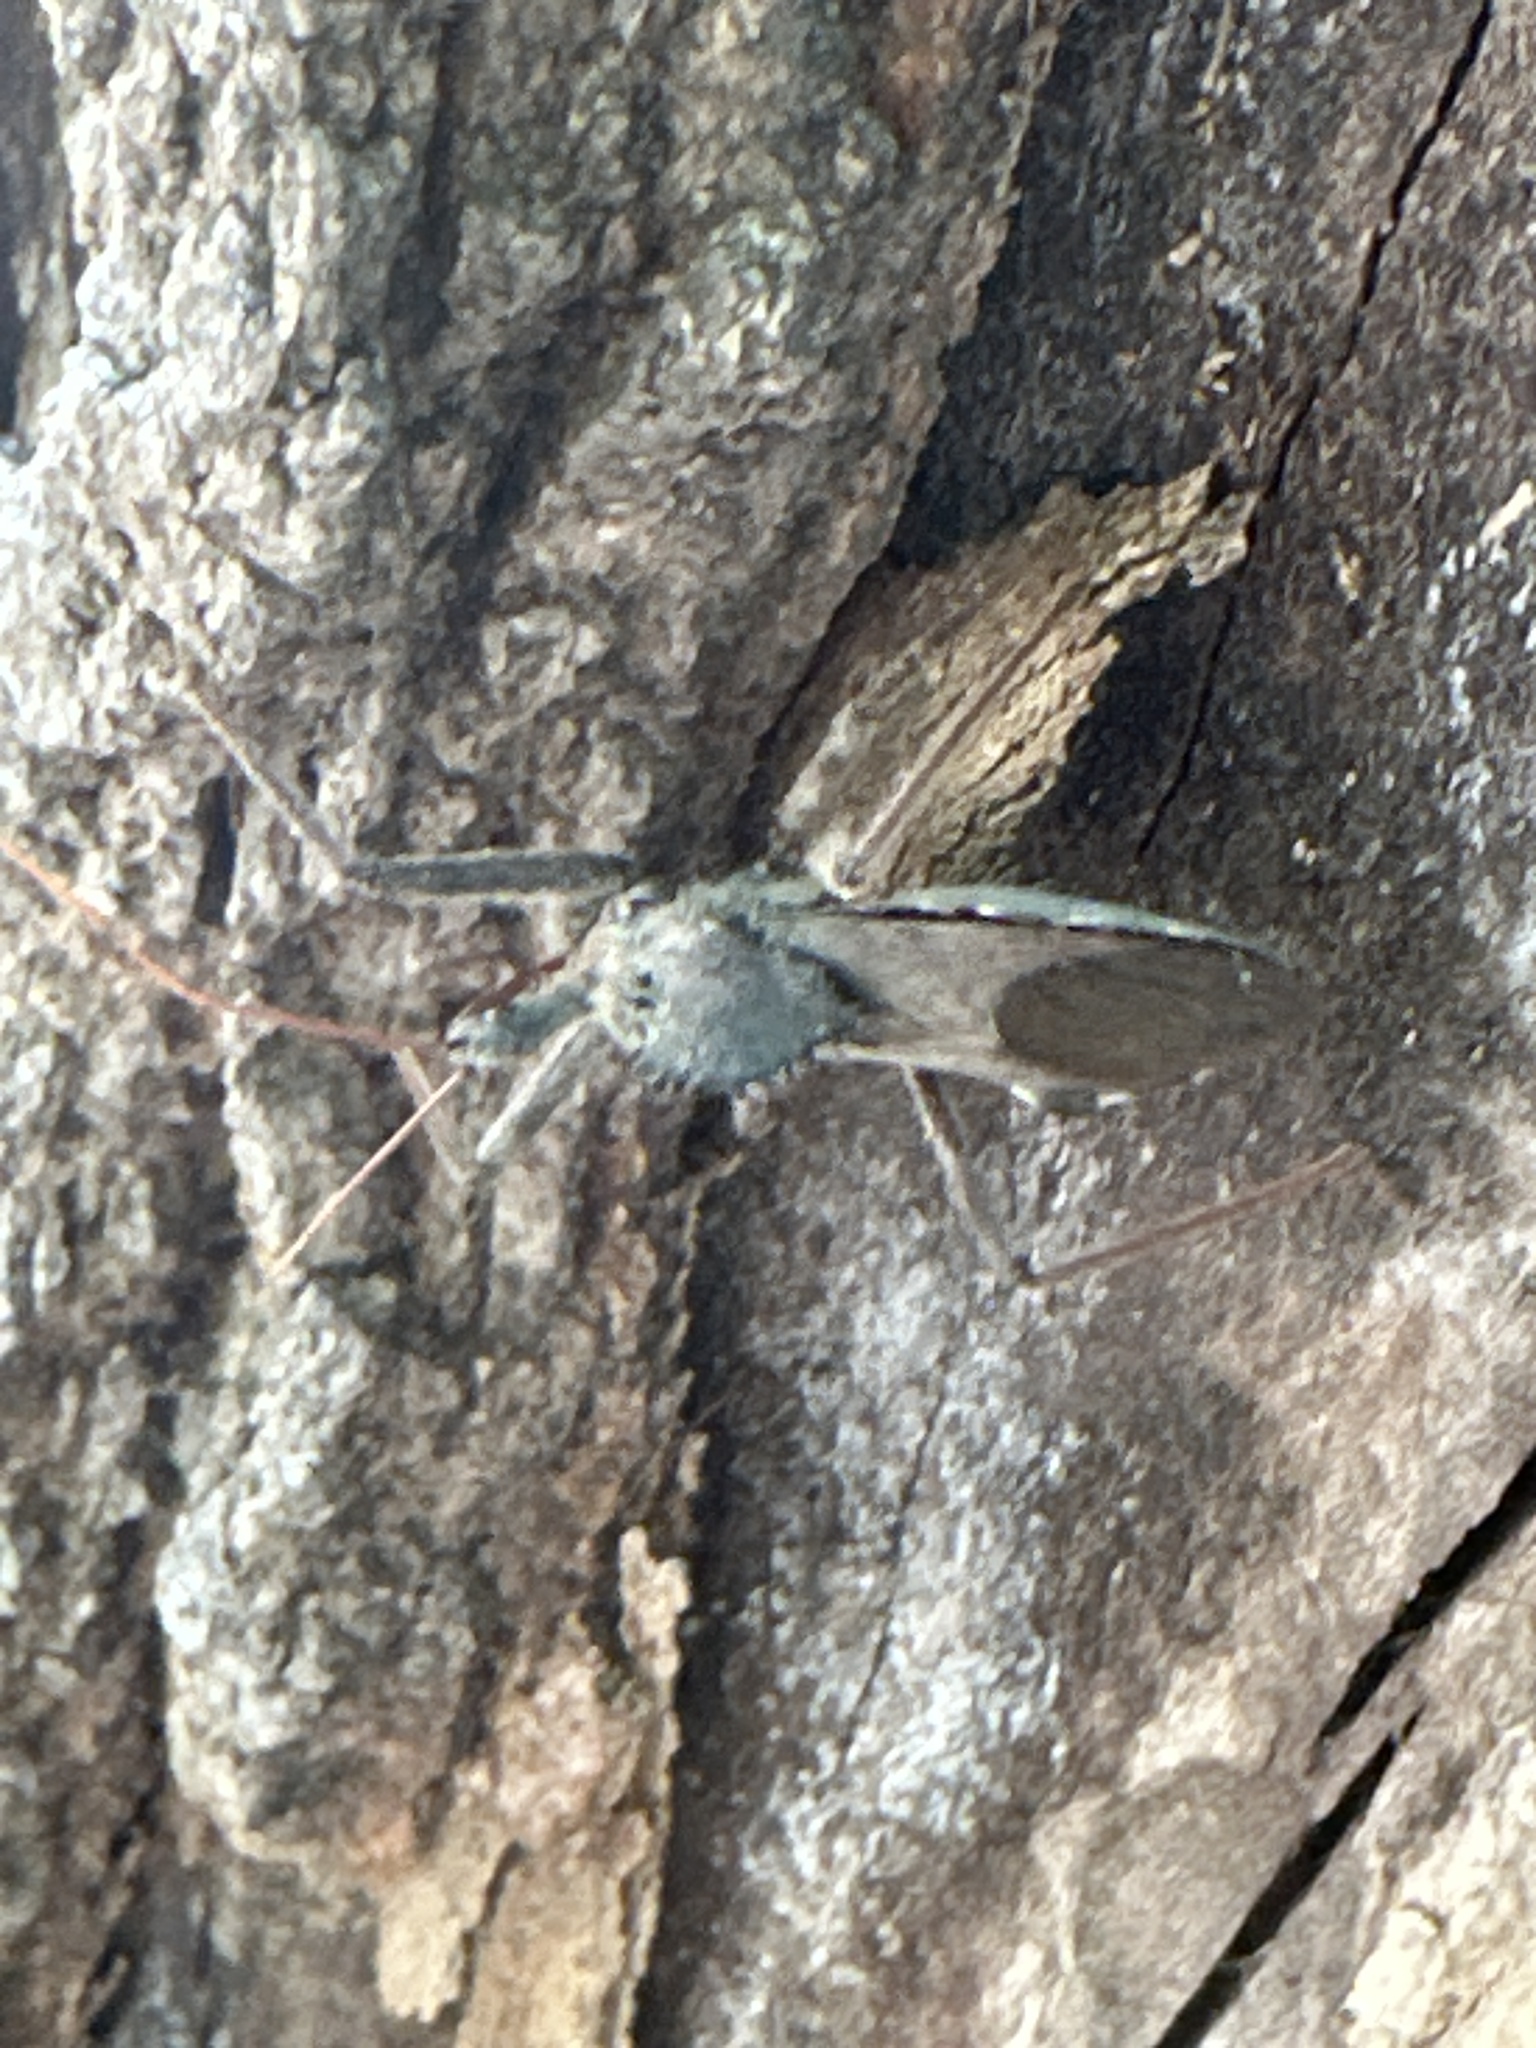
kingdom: Animalia
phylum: Arthropoda
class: Insecta
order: Hemiptera
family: Reduviidae
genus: Arilus
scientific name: Arilus cristatus
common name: North american wheel bug
